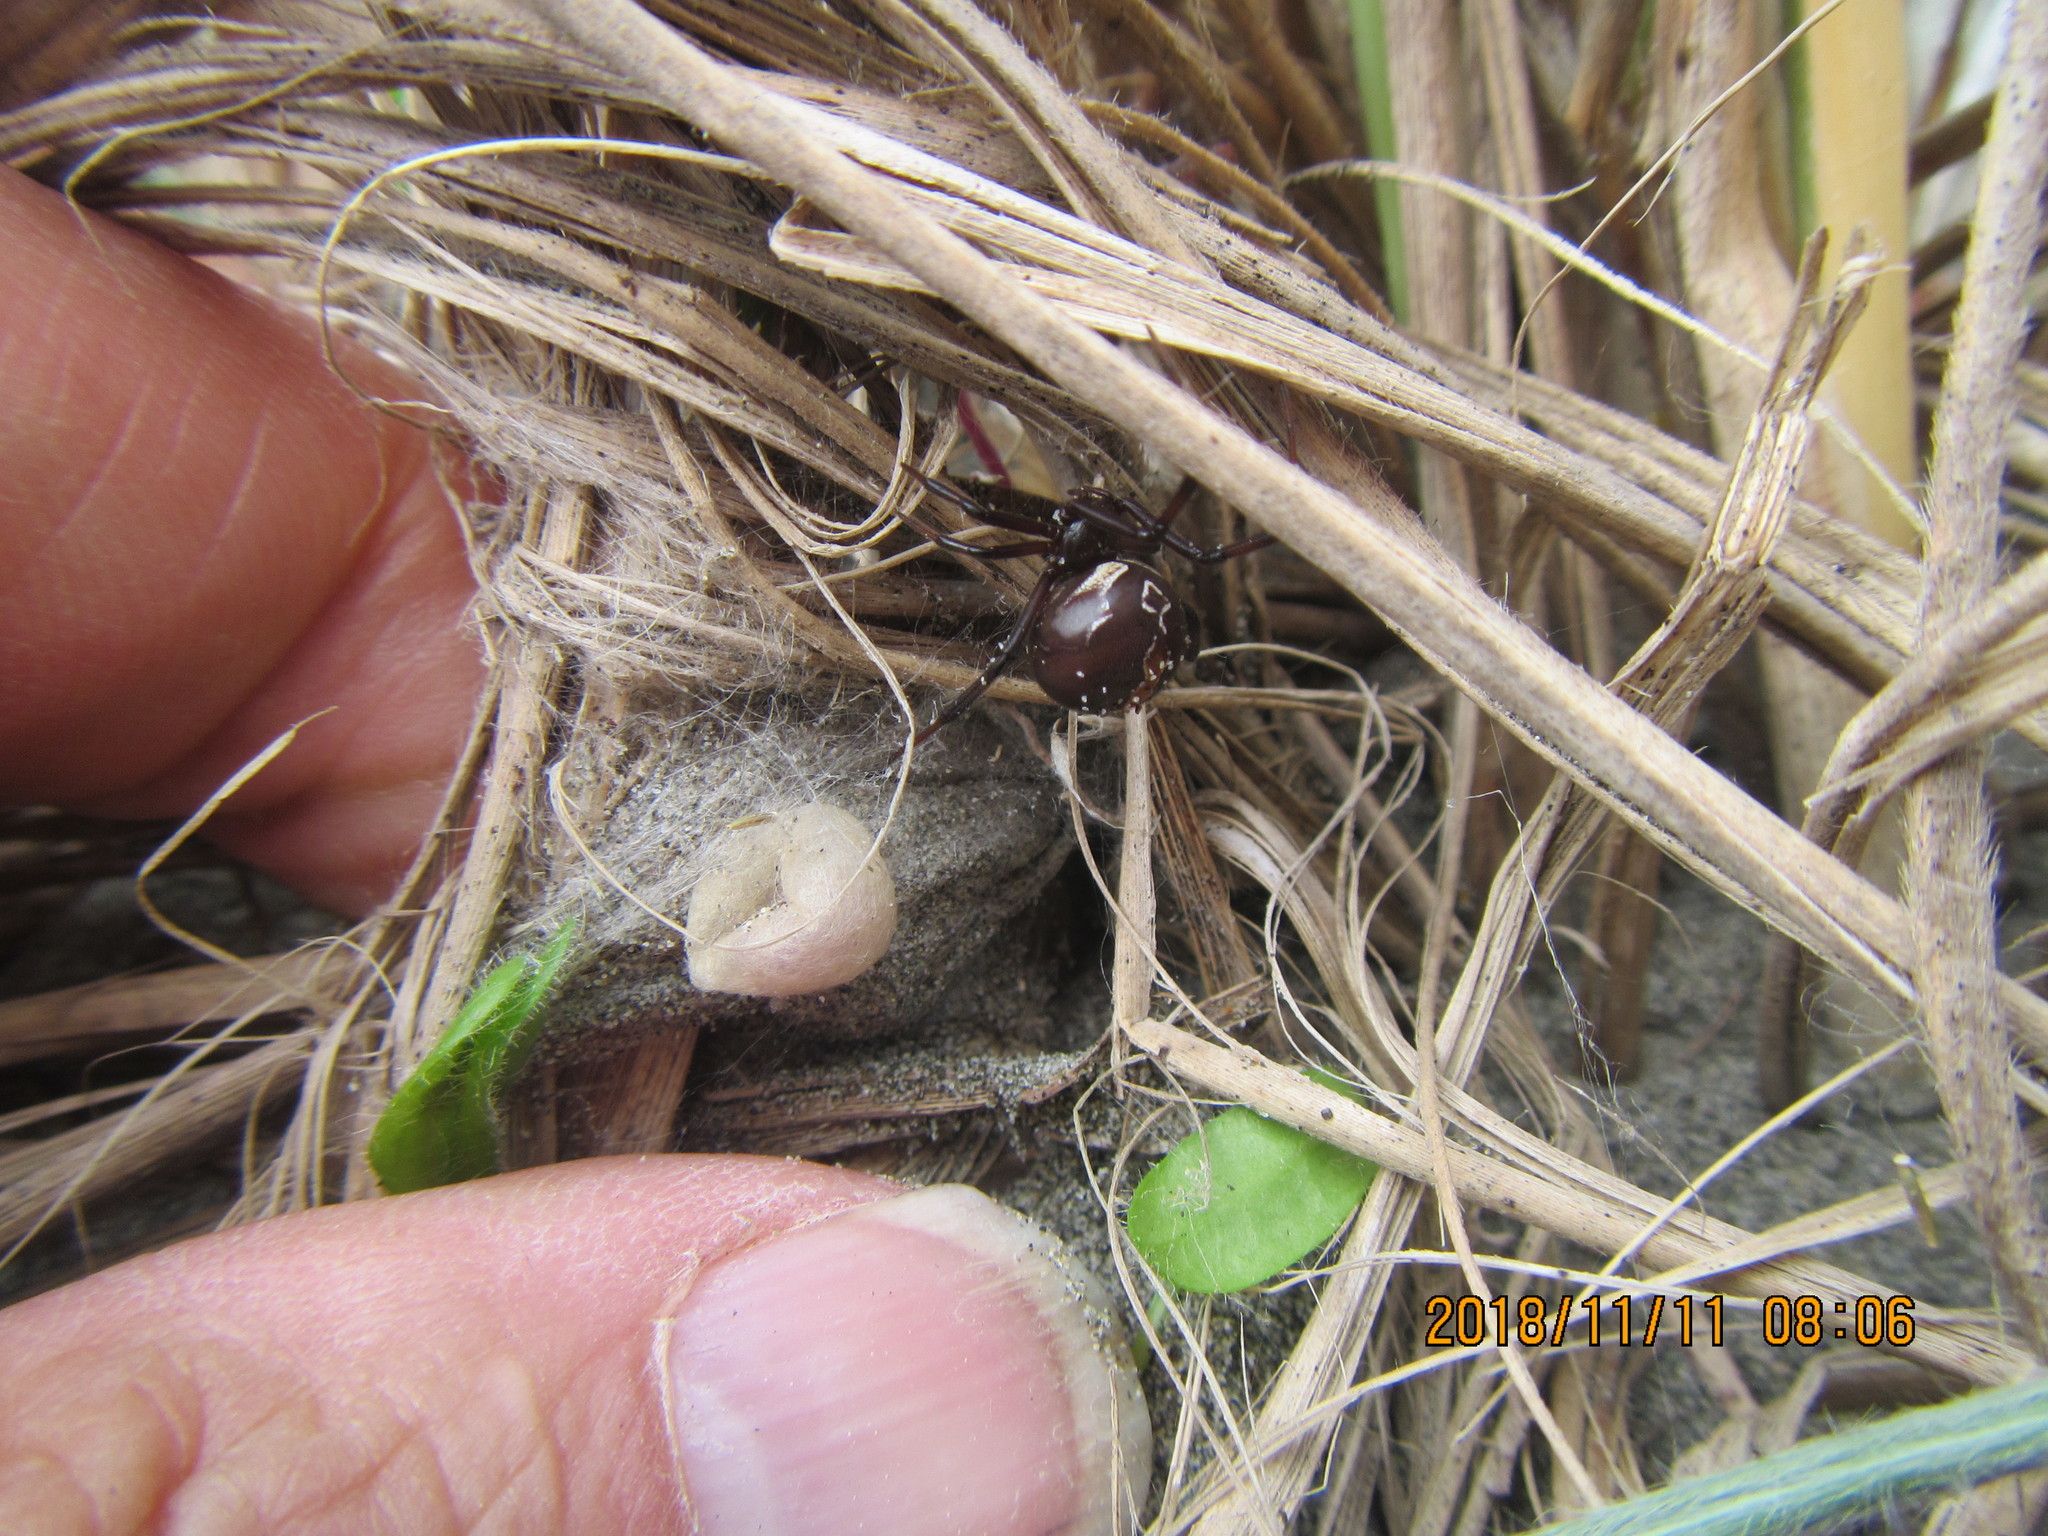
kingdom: Animalia
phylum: Arthropoda
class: Arachnida
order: Araneae
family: Theridiidae
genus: Latrodectus
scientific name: Latrodectus katipo
